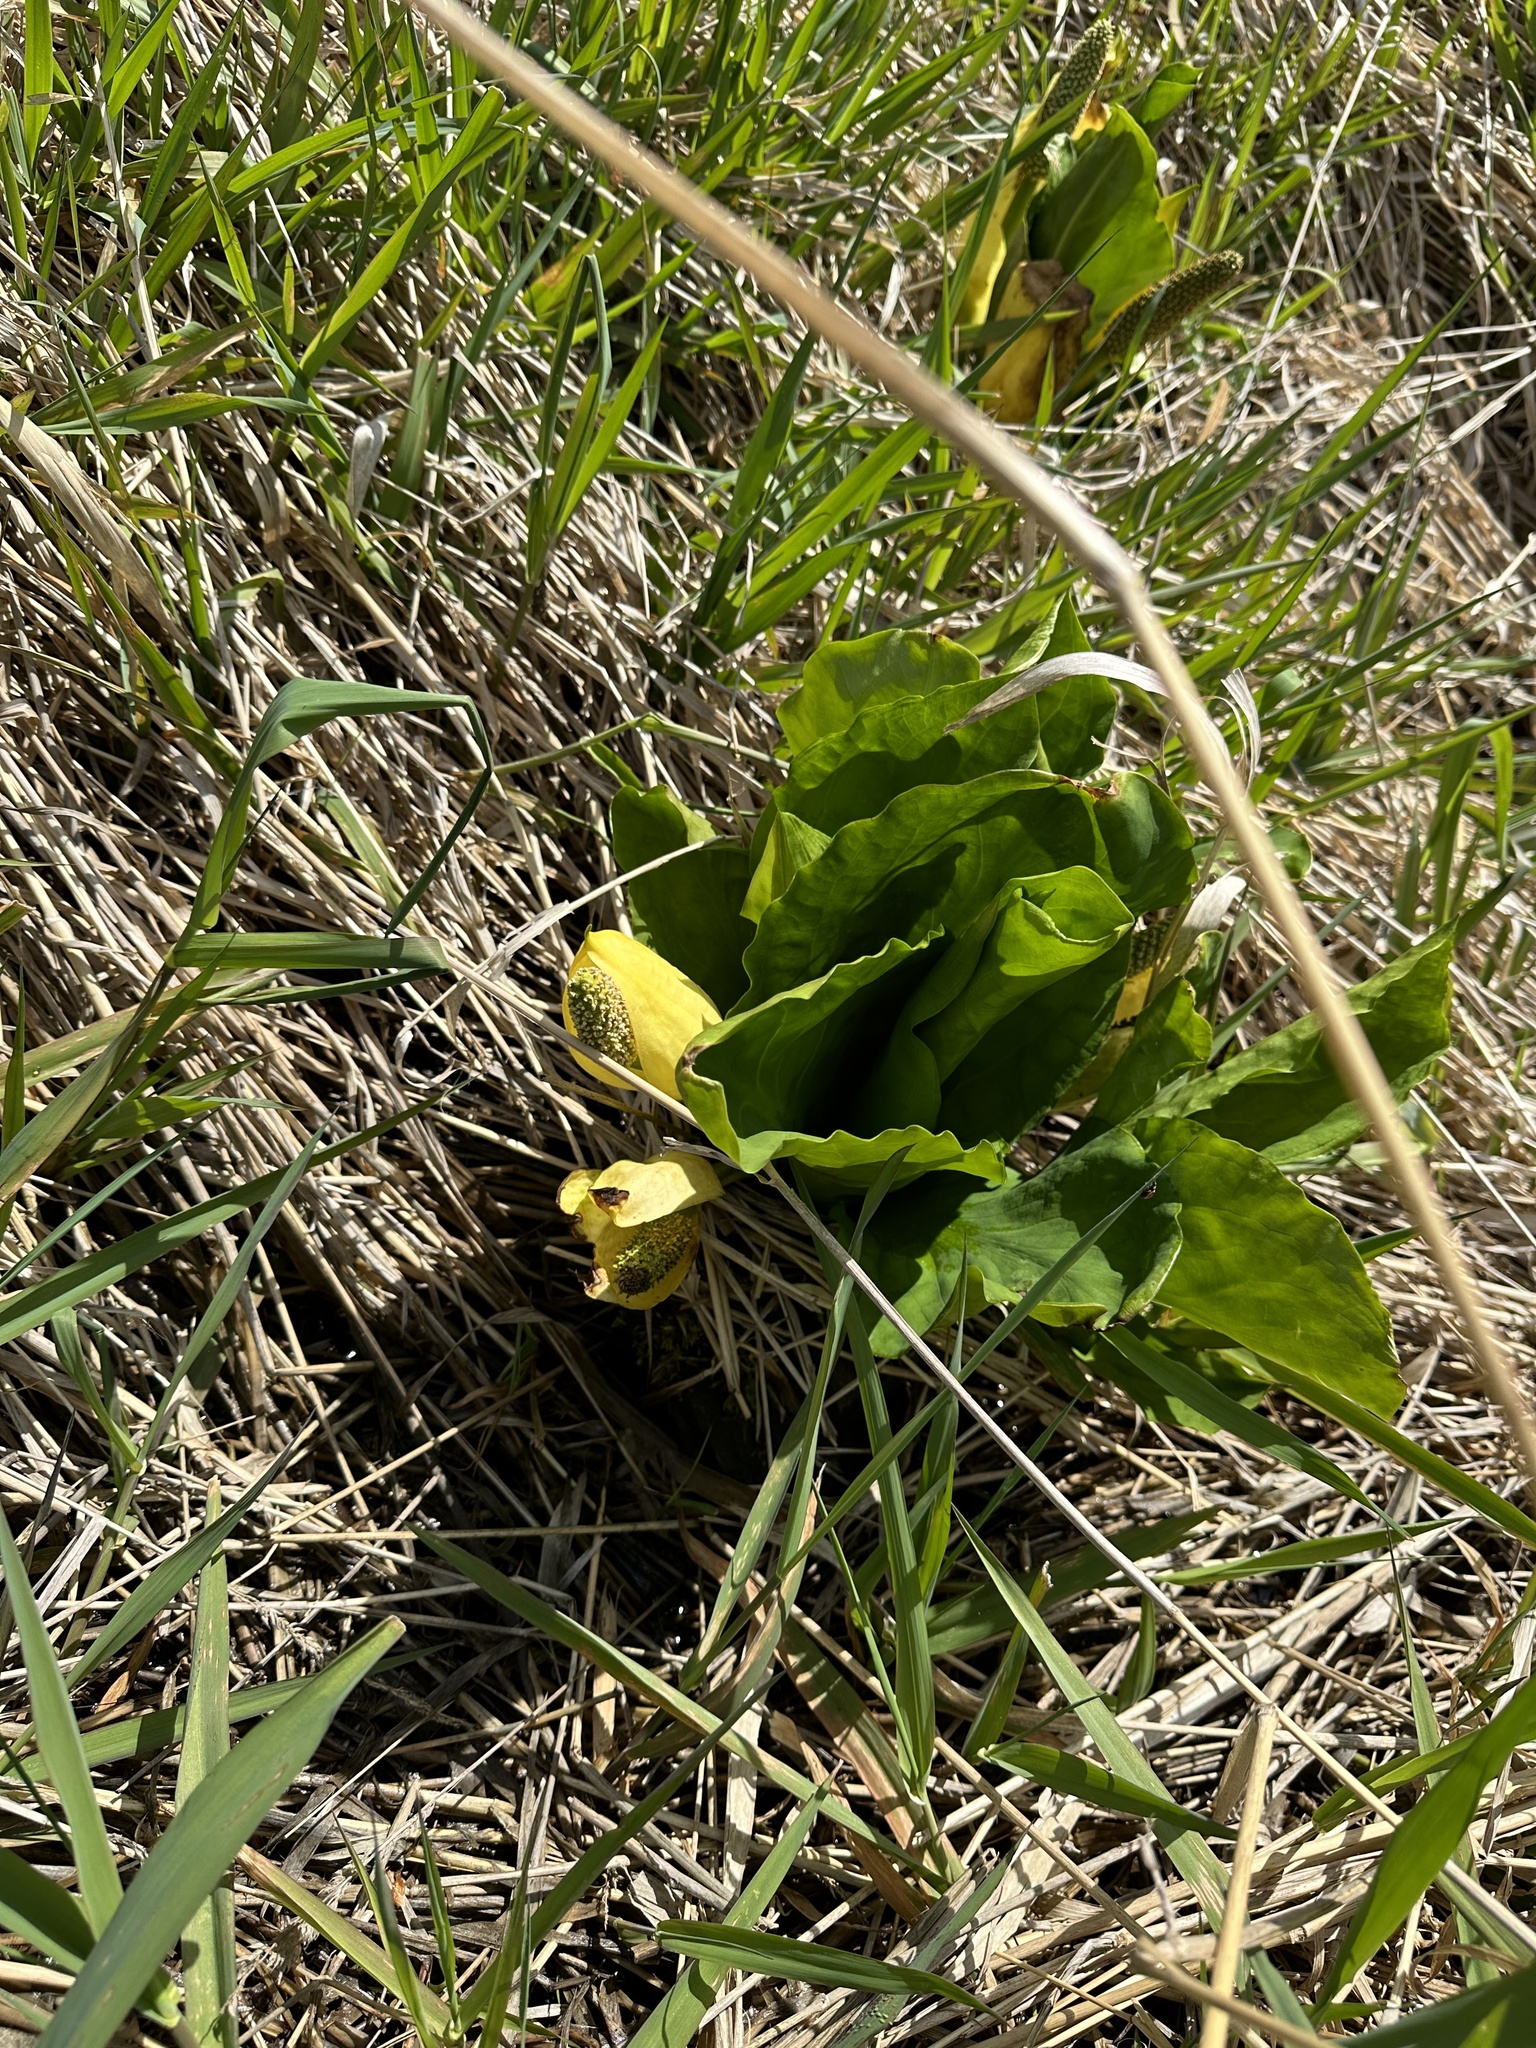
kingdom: Plantae
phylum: Tracheophyta
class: Liliopsida
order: Alismatales
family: Araceae
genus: Lysichiton
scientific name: Lysichiton americanus
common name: American skunk cabbage
